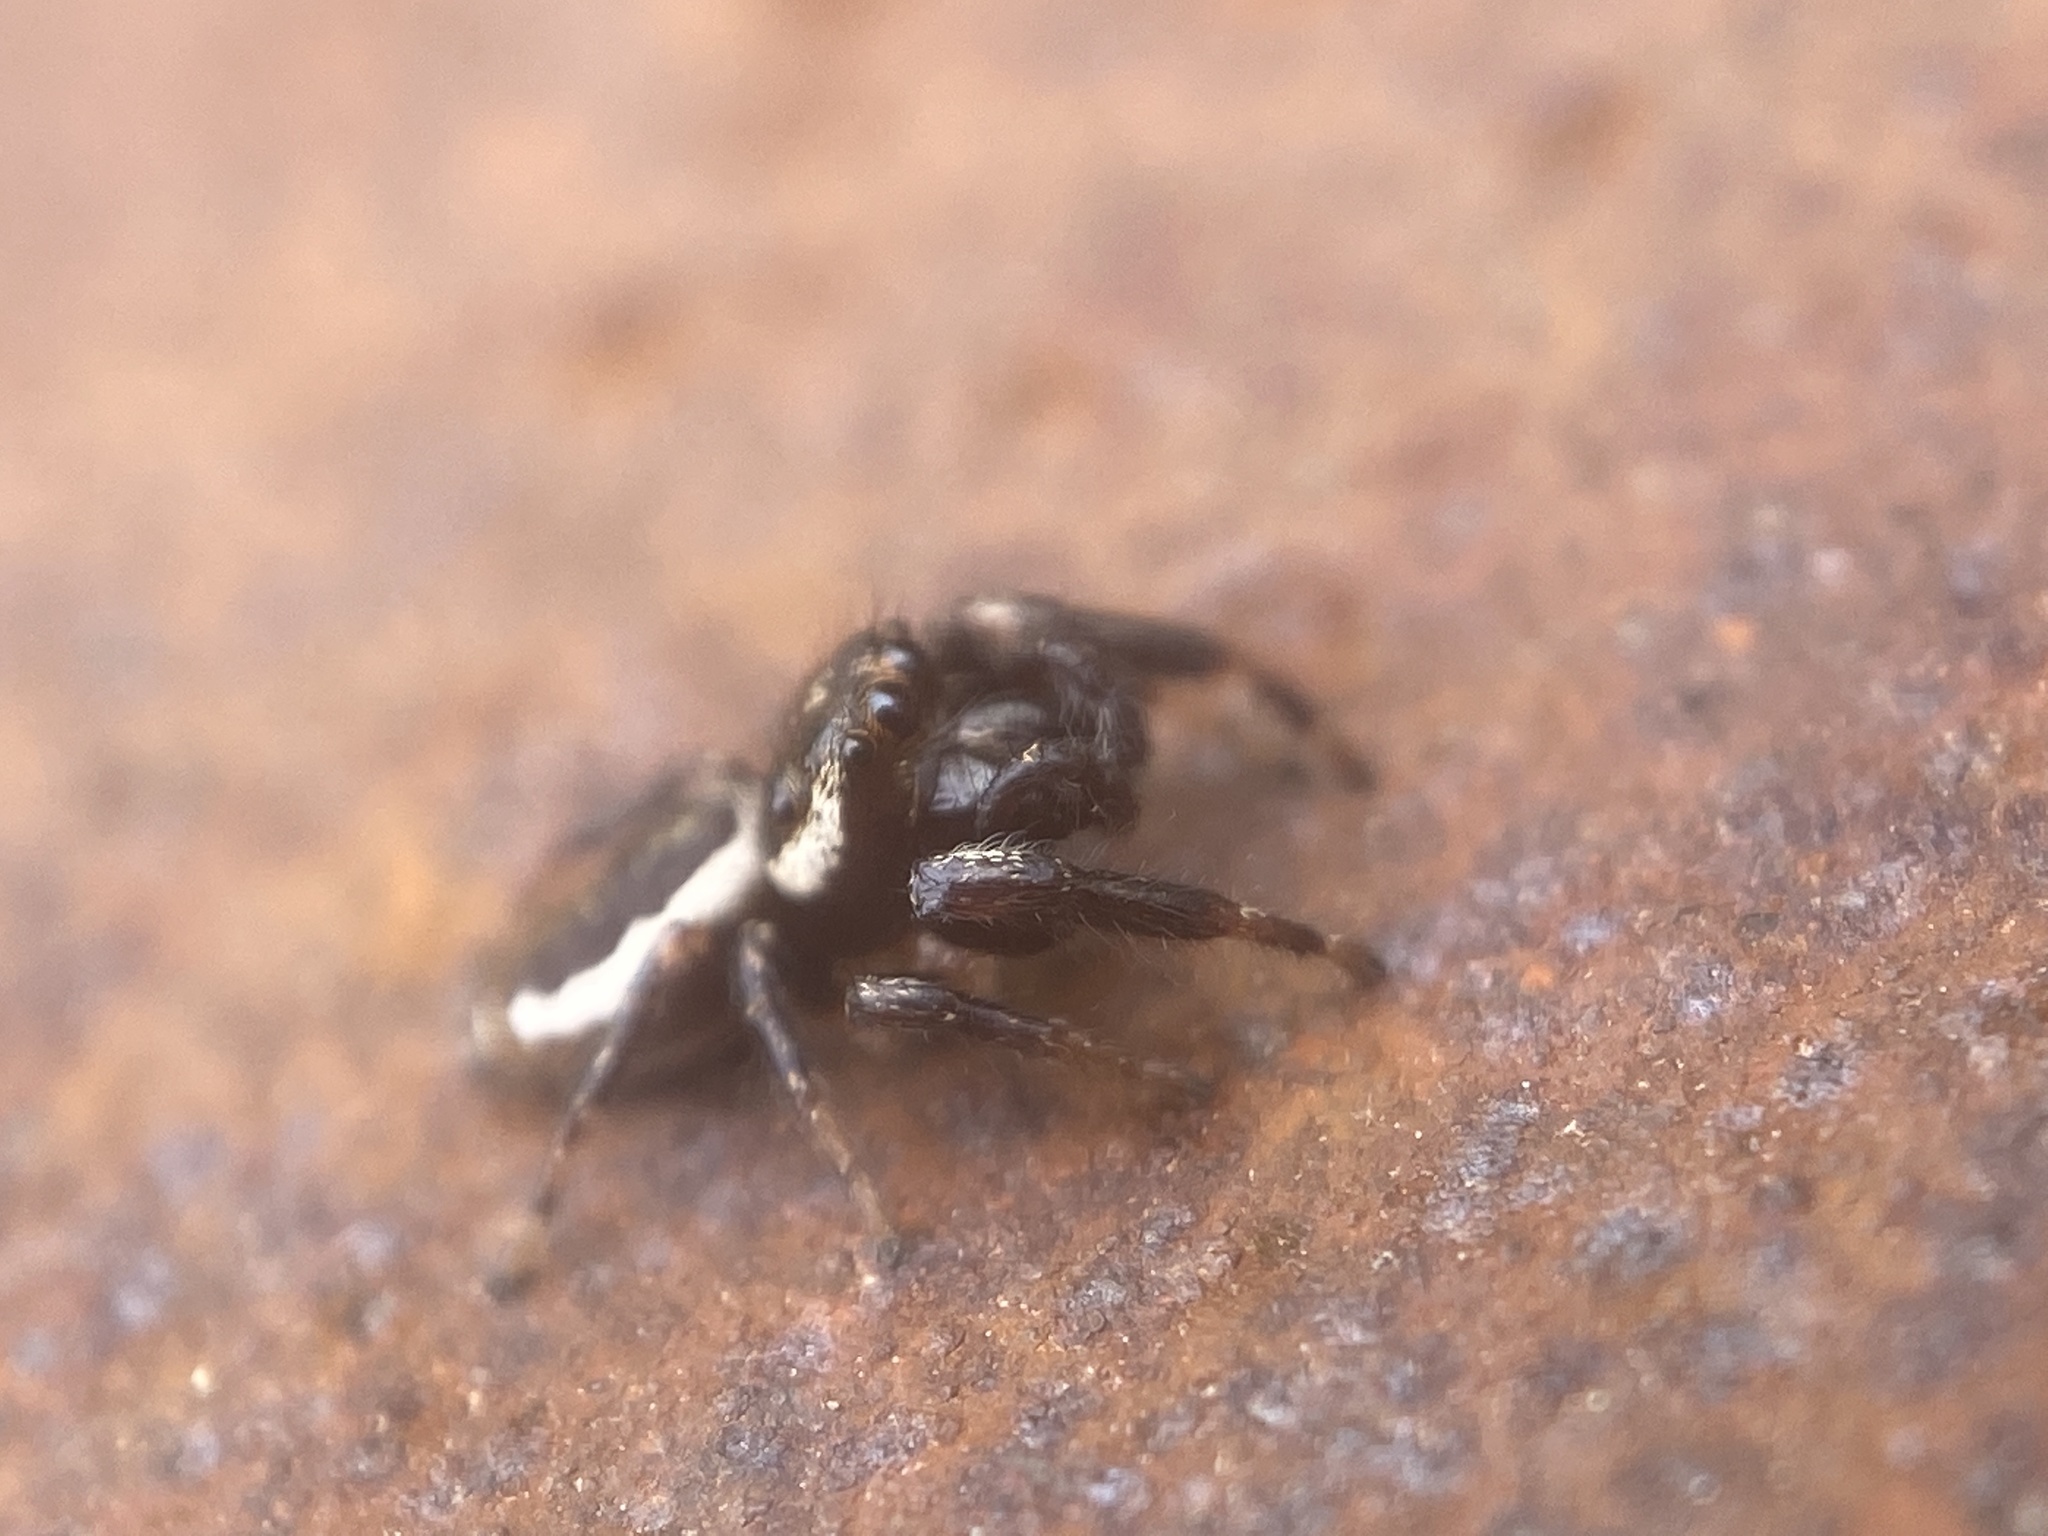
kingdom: Animalia
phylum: Arthropoda
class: Arachnida
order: Araneae
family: Salticidae
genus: Eris
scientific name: Eris militaris
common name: Bronze jumper
